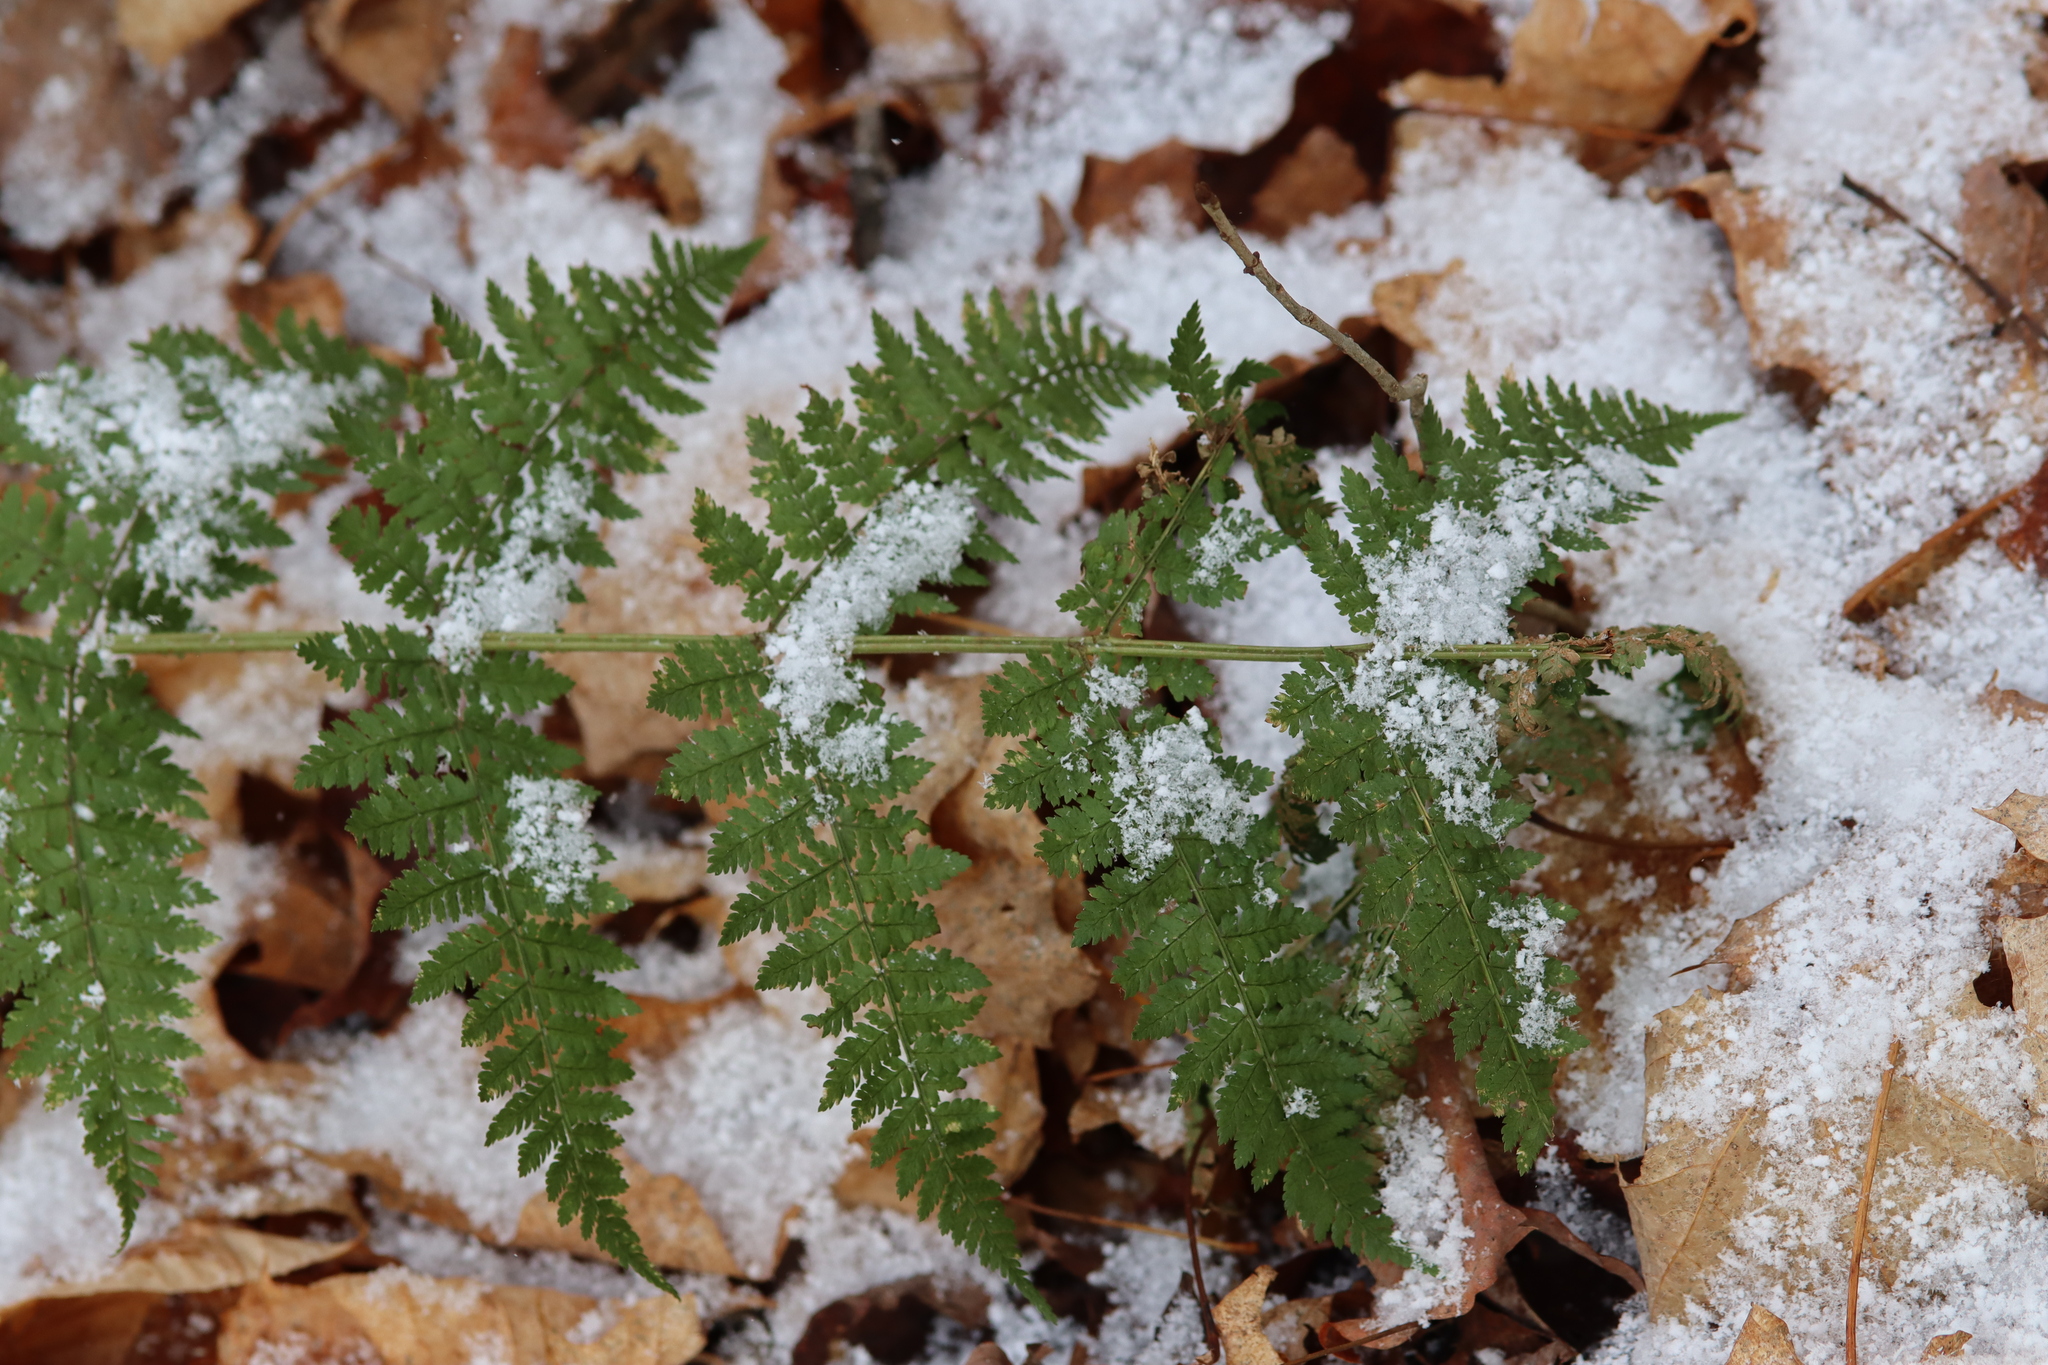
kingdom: Plantae
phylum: Tracheophyta
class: Polypodiopsida
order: Polypodiales
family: Dryopteridaceae
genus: Dryopteris
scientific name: Dryopteris intermedia
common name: Evergreen wood fern
